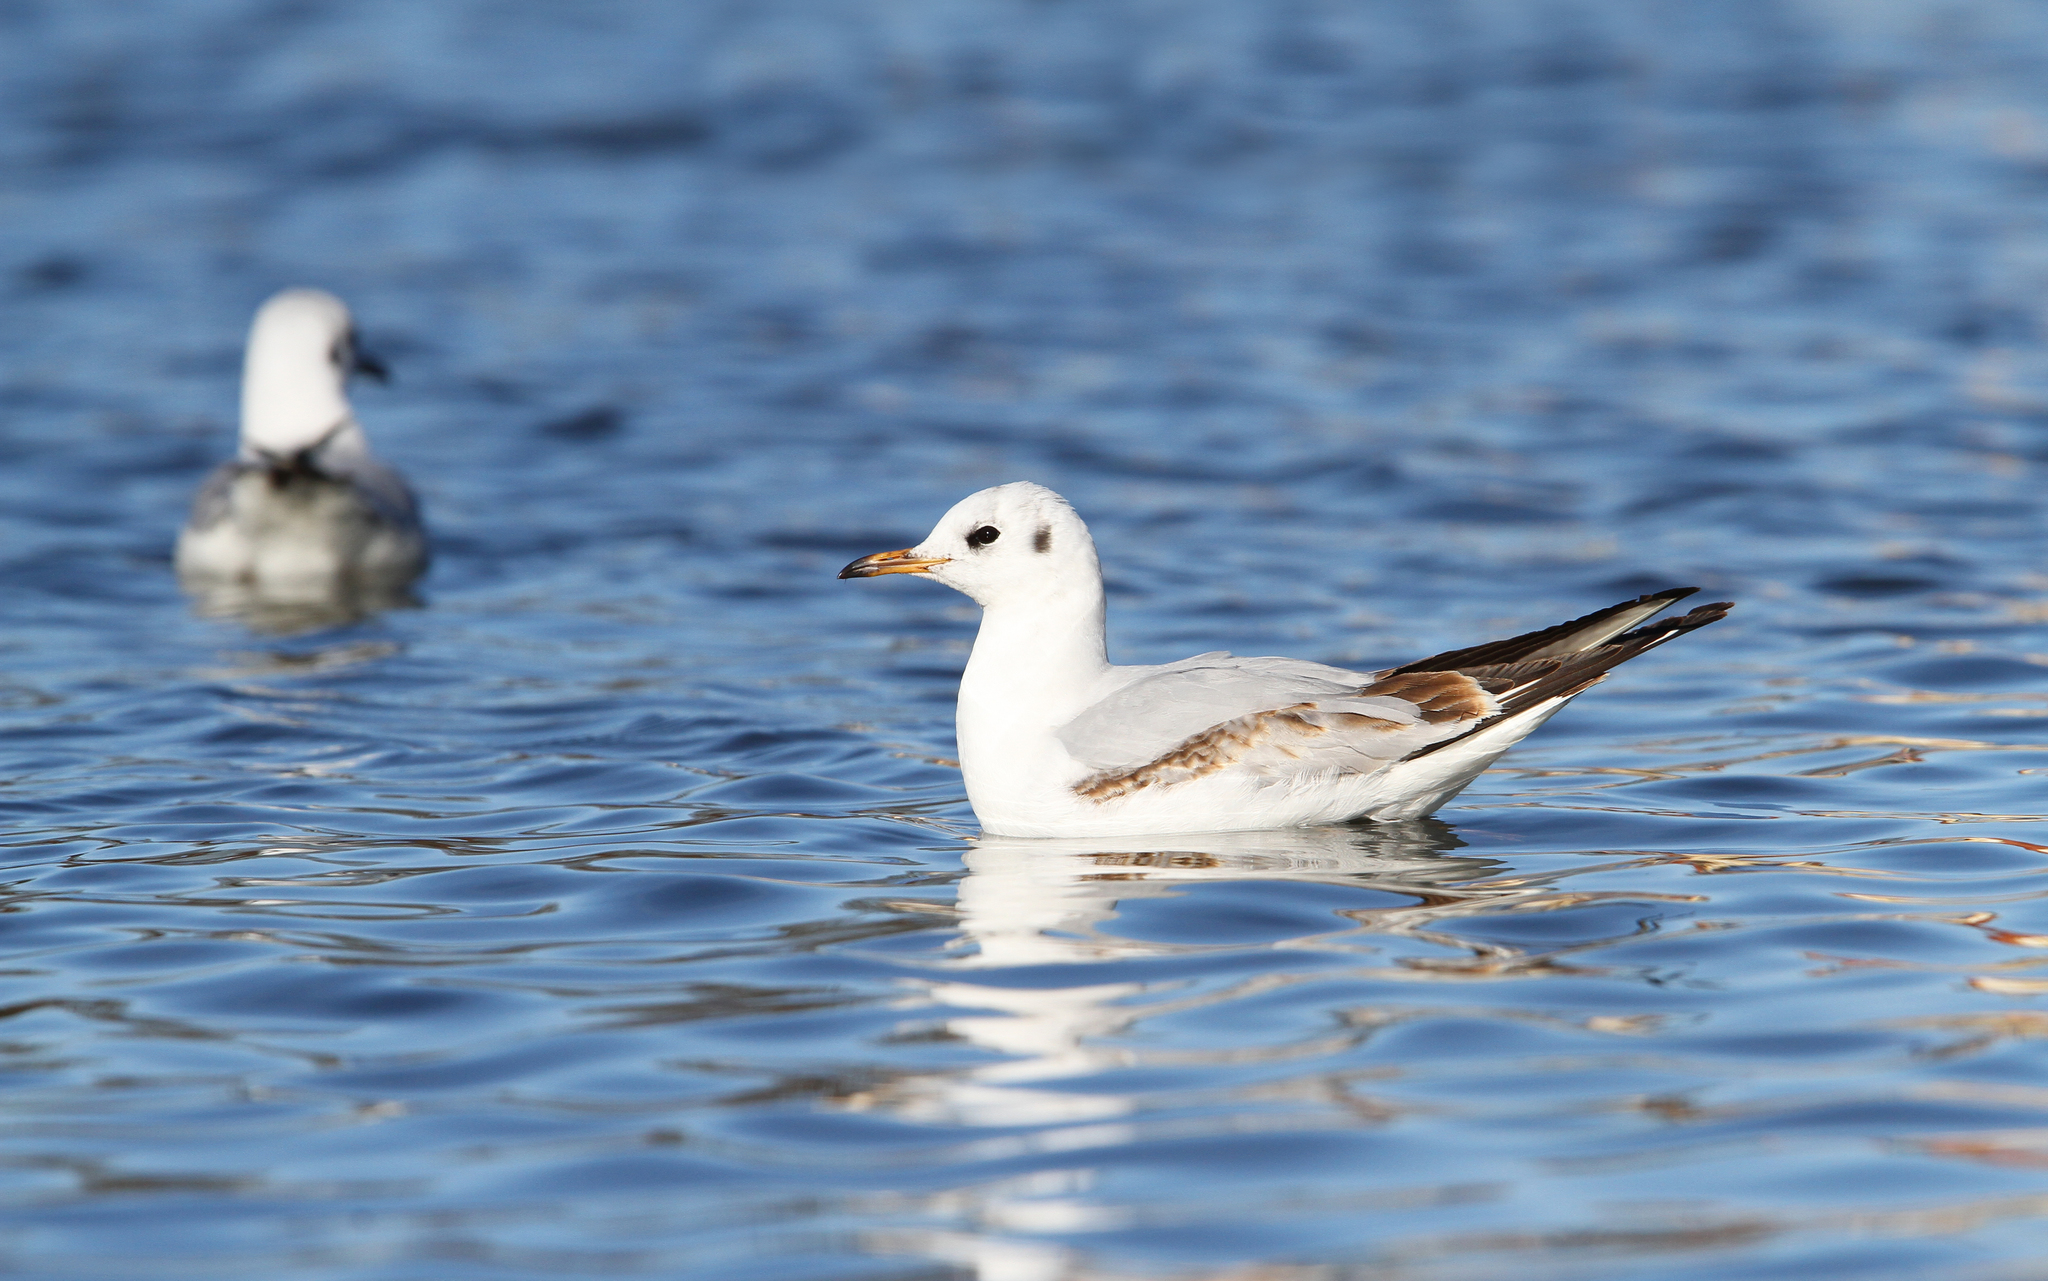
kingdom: Animalia
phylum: Chordata
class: Aves
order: Charadriiformes
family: Laridae
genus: Chroicocephalus
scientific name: Chroicocephalus ridibundus
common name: Black-headed gull
